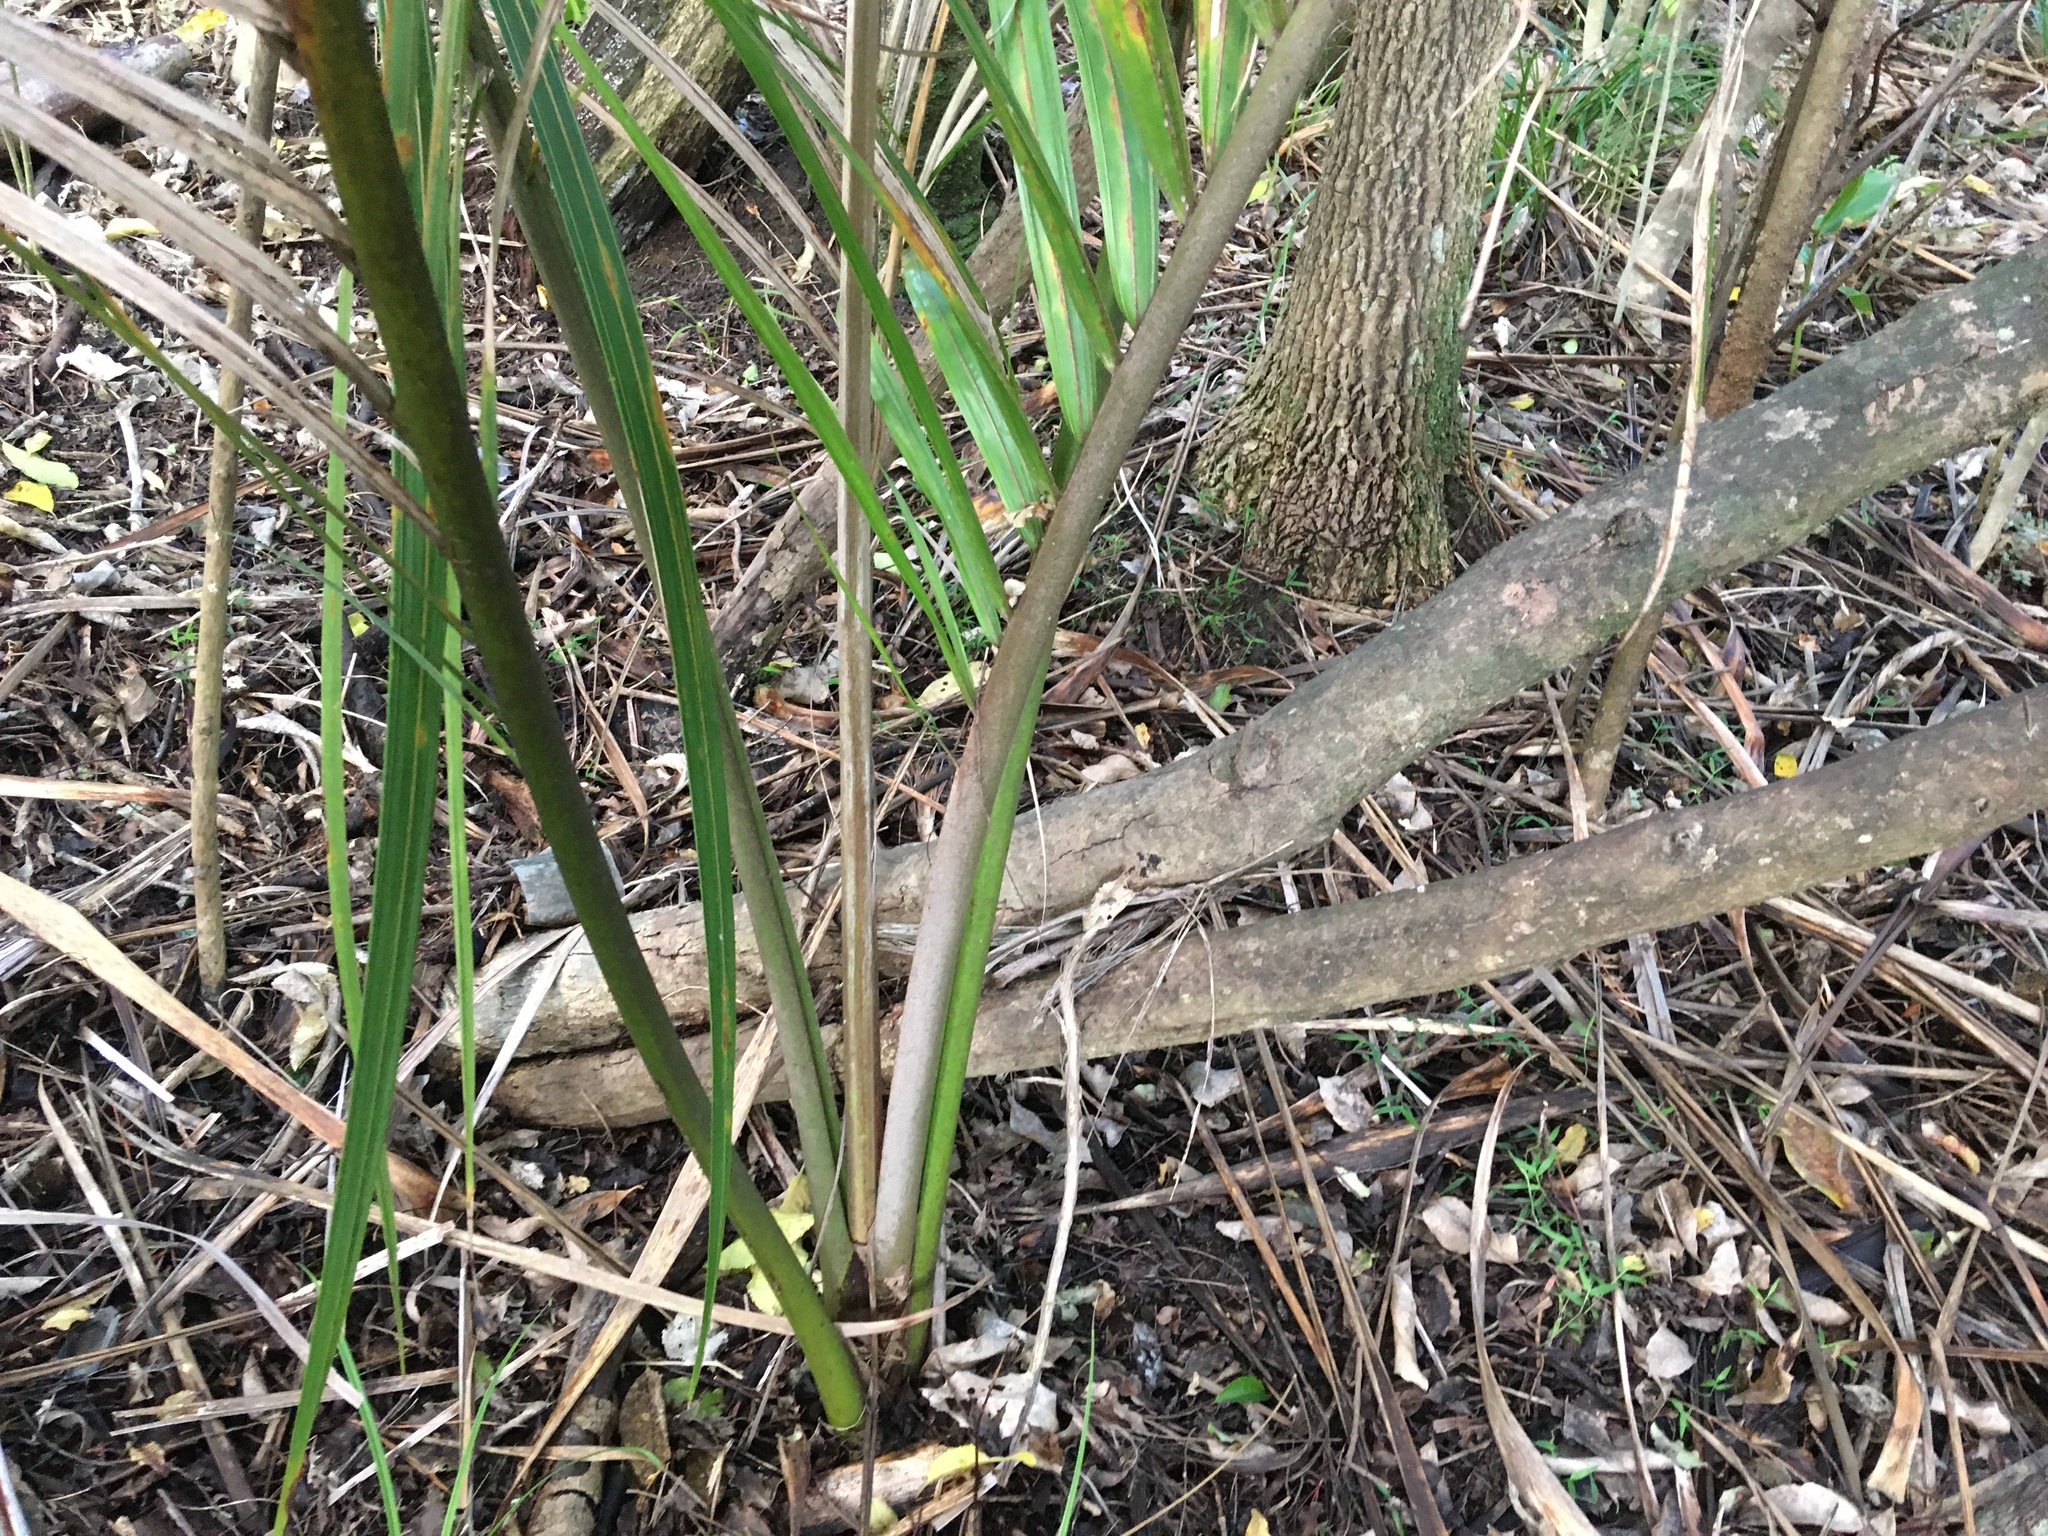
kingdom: Plantae
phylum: Tracheophyta
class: Liliopsida
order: Arecales
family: Arecaceae
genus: Rhopalostylis
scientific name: Rhopalostylis sapida
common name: Feather-duster palm
